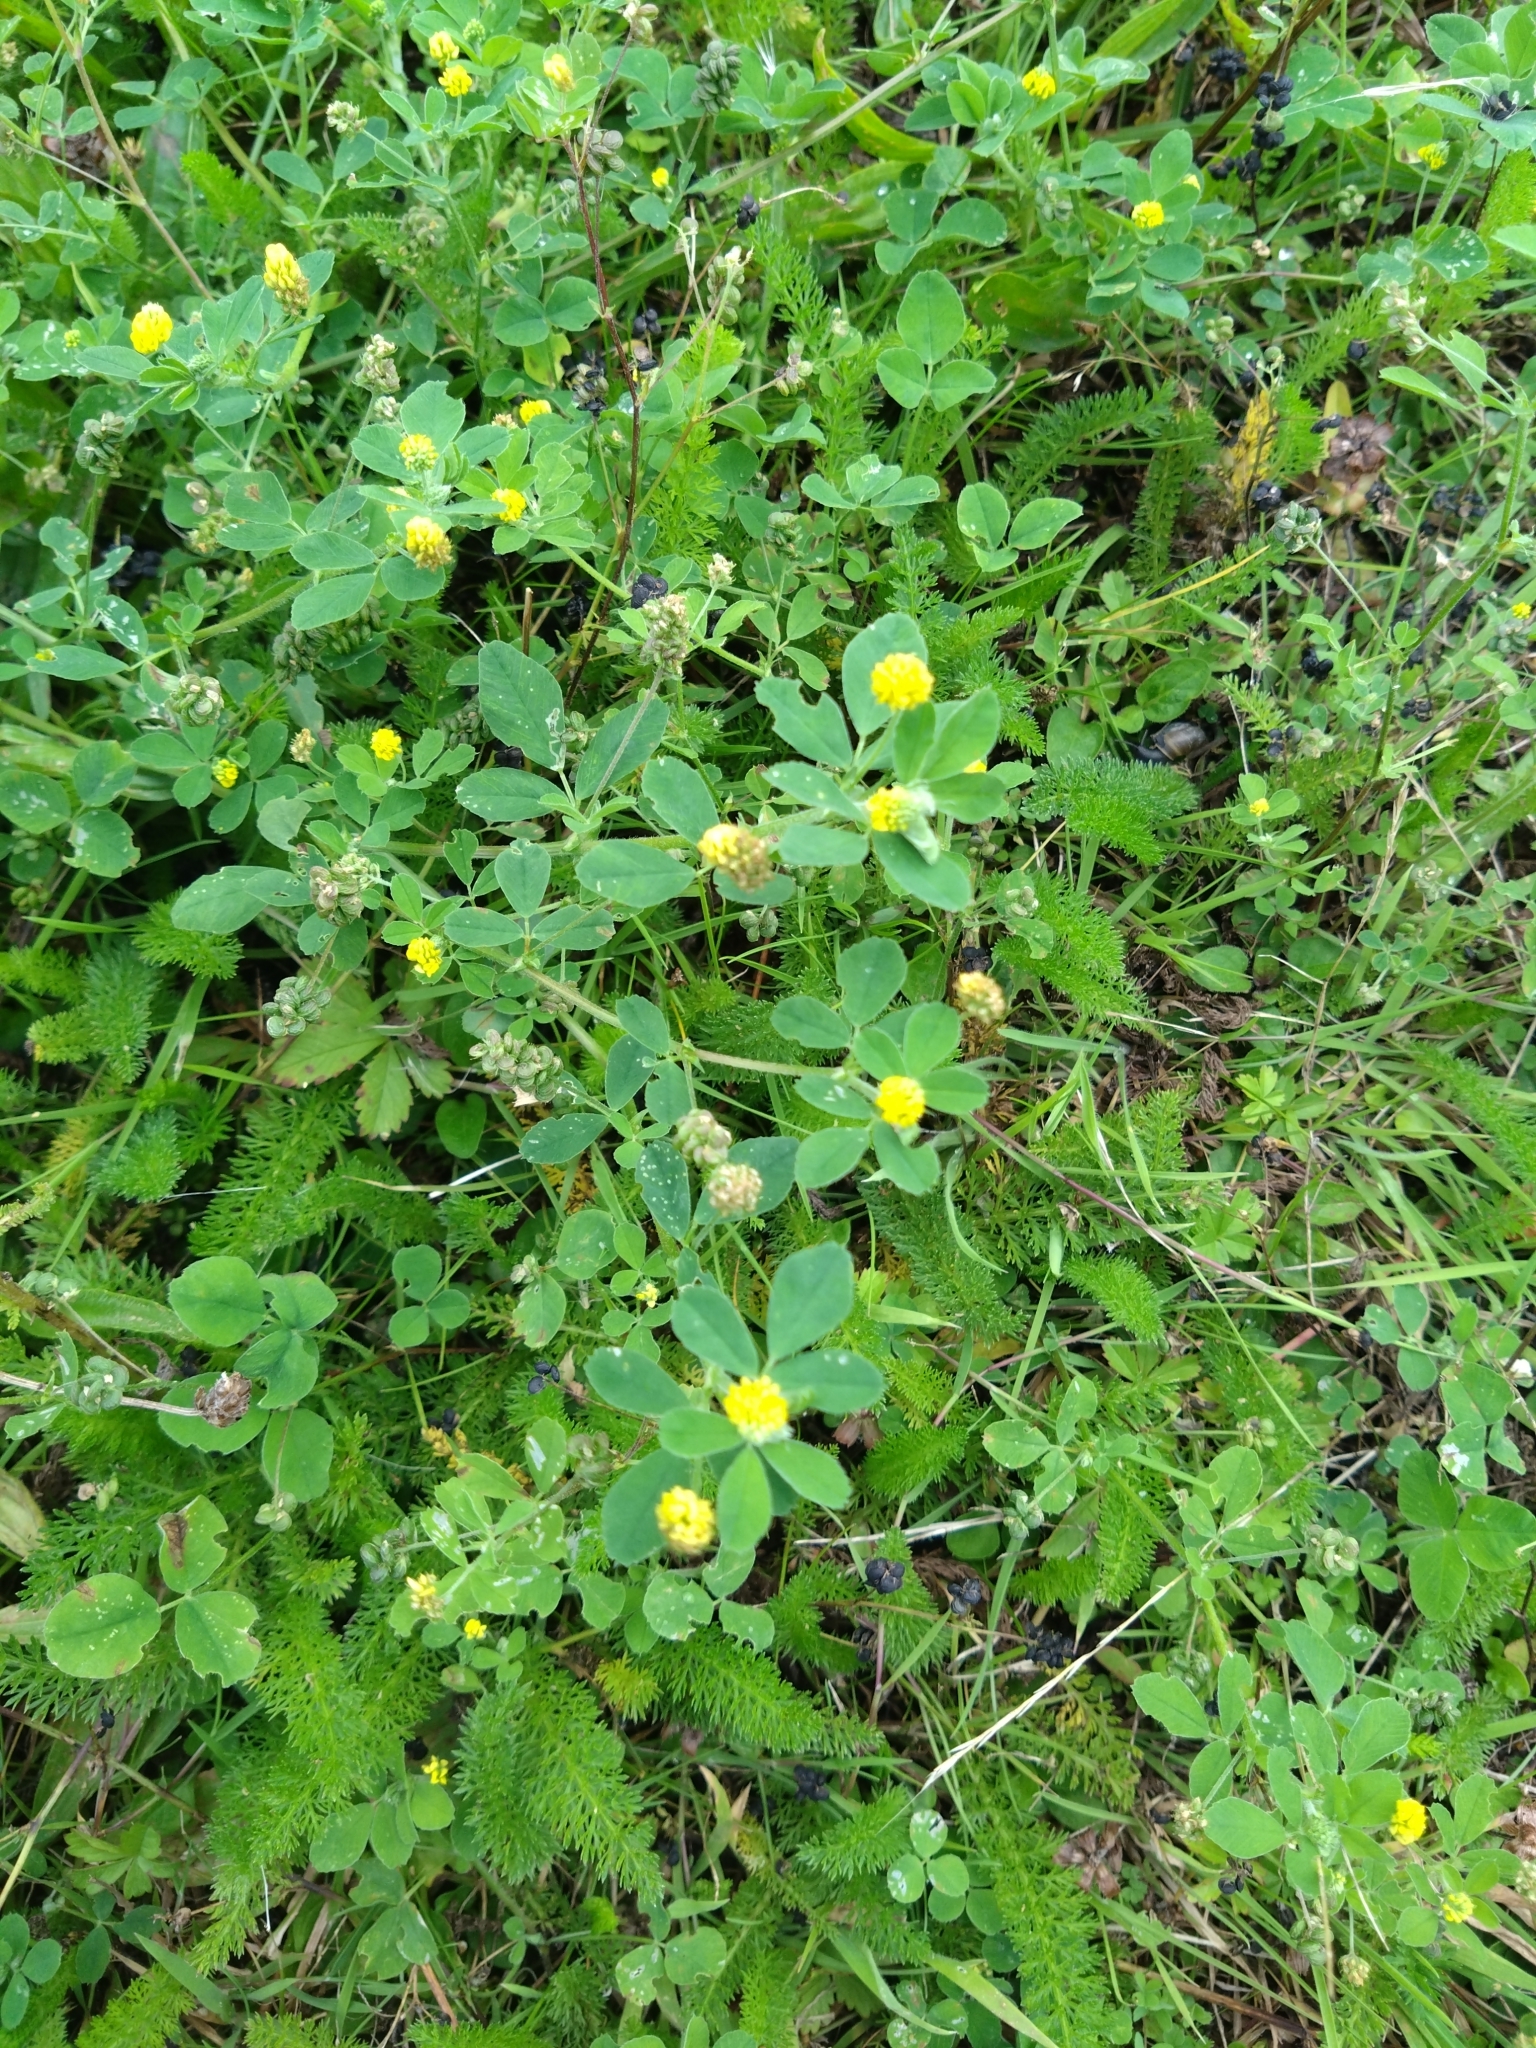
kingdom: Plantae
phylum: Tracheophyta
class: Magnoliopsida
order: Fabales
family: Fabaceae
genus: Medicago
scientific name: Medicago lupulina
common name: Black medick
